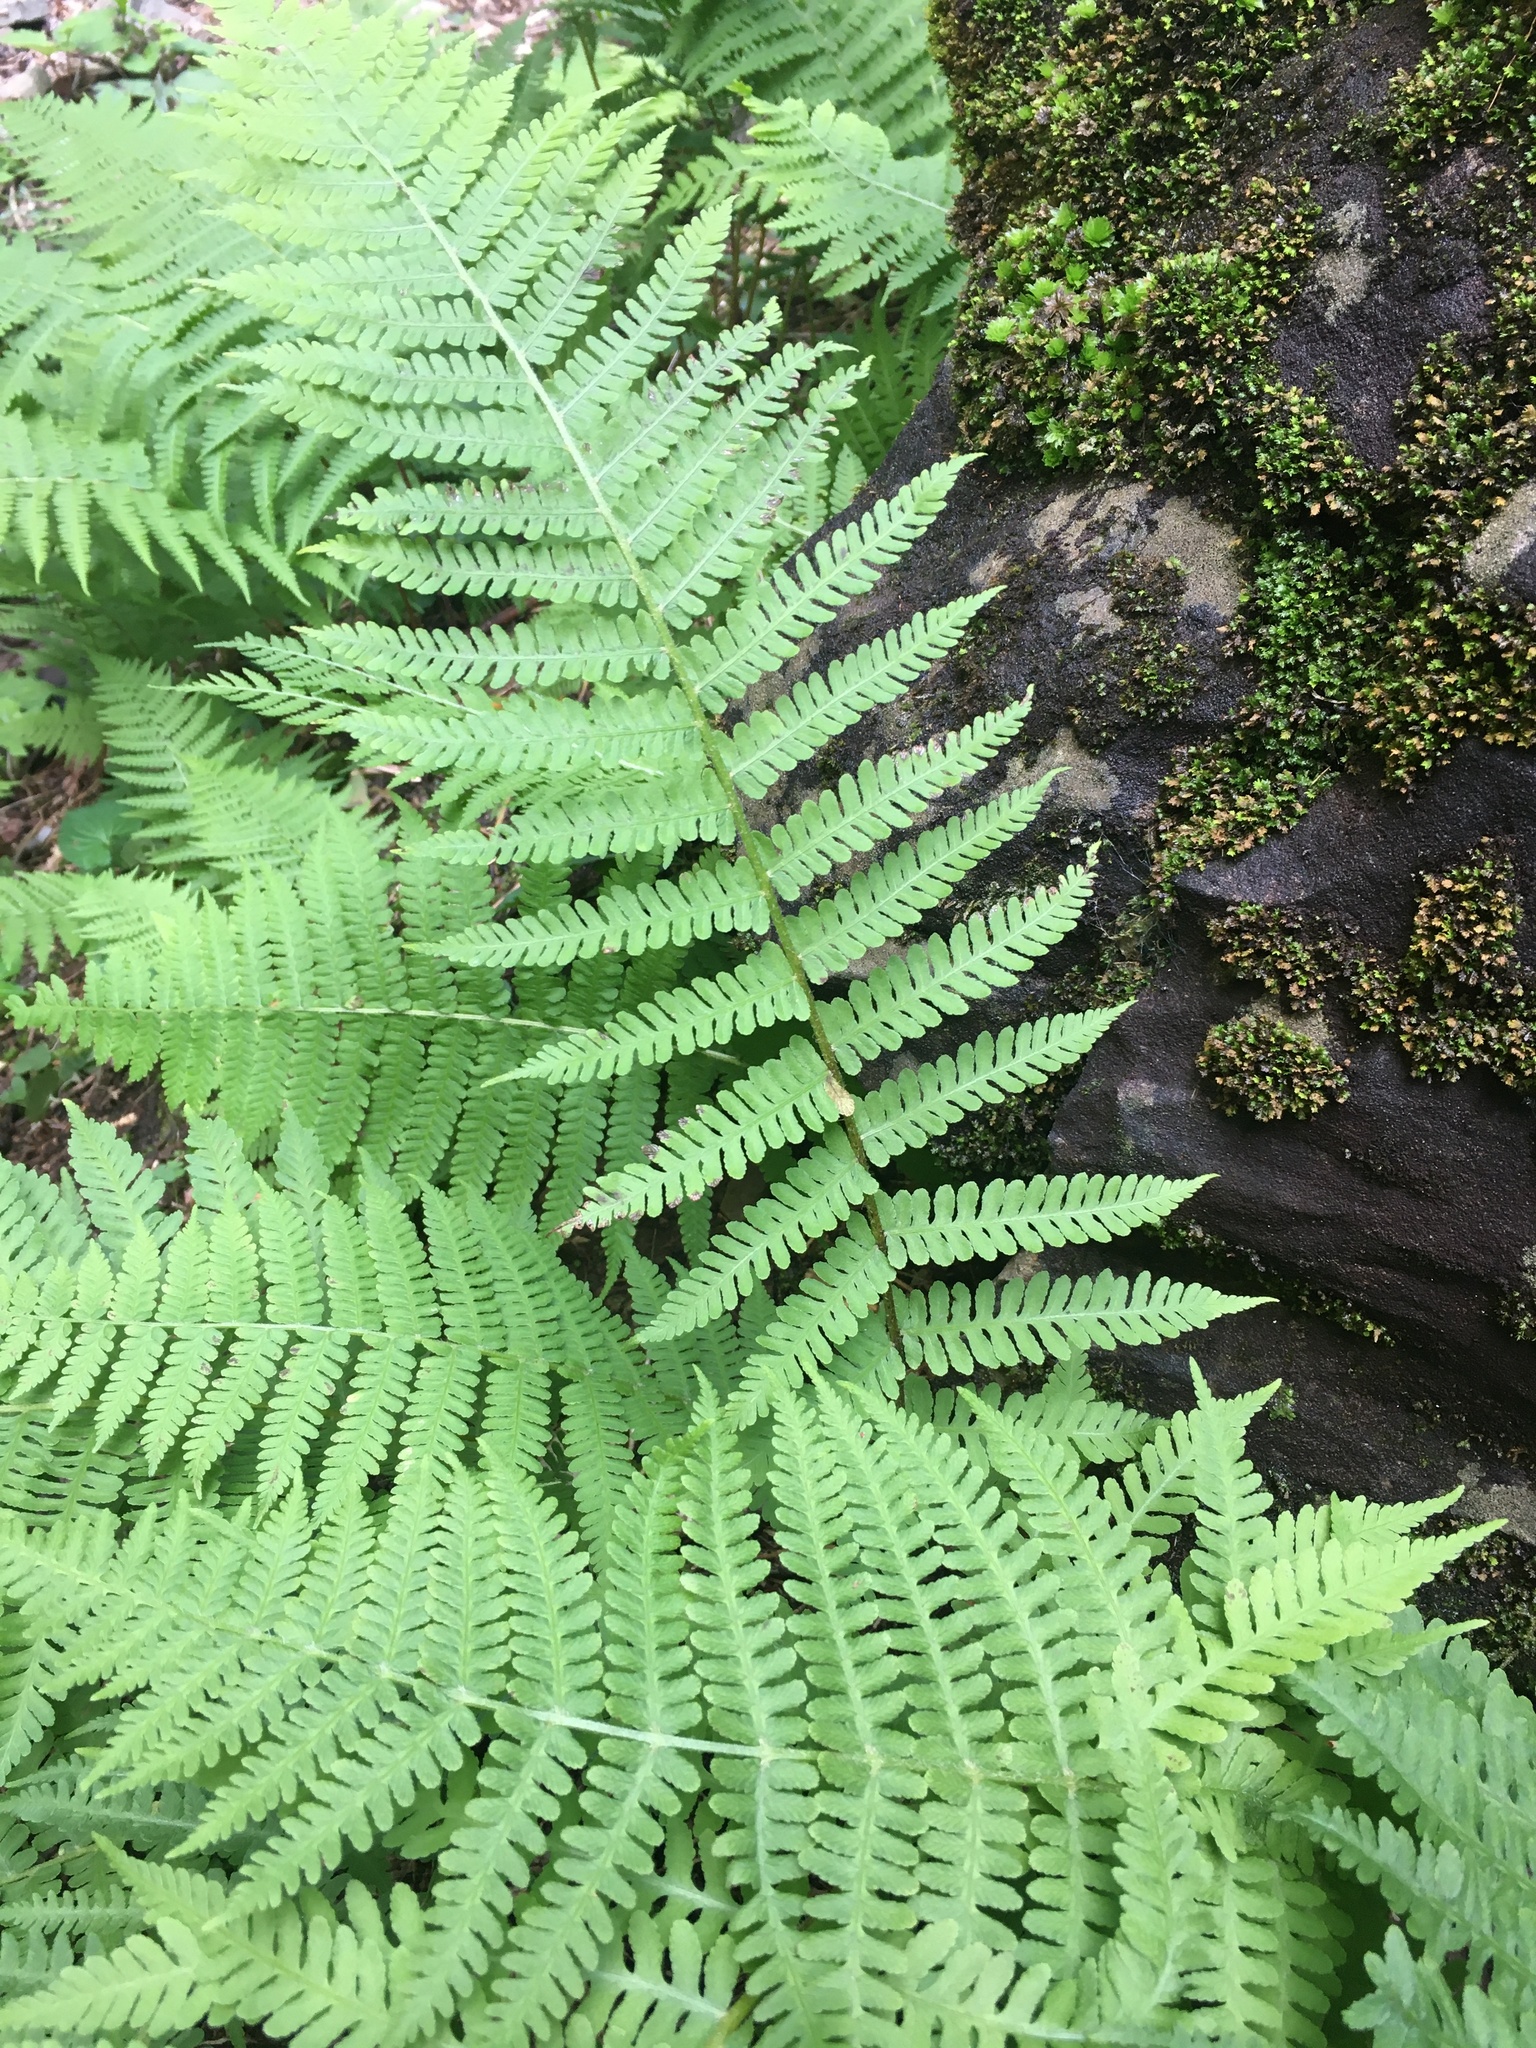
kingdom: Plantae
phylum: Tracheophyta
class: Polypodiopsida
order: Polypodiales
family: Athyriaceae
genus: Deparia
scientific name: Deparia acrostichoides
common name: Silver false spleenwort
